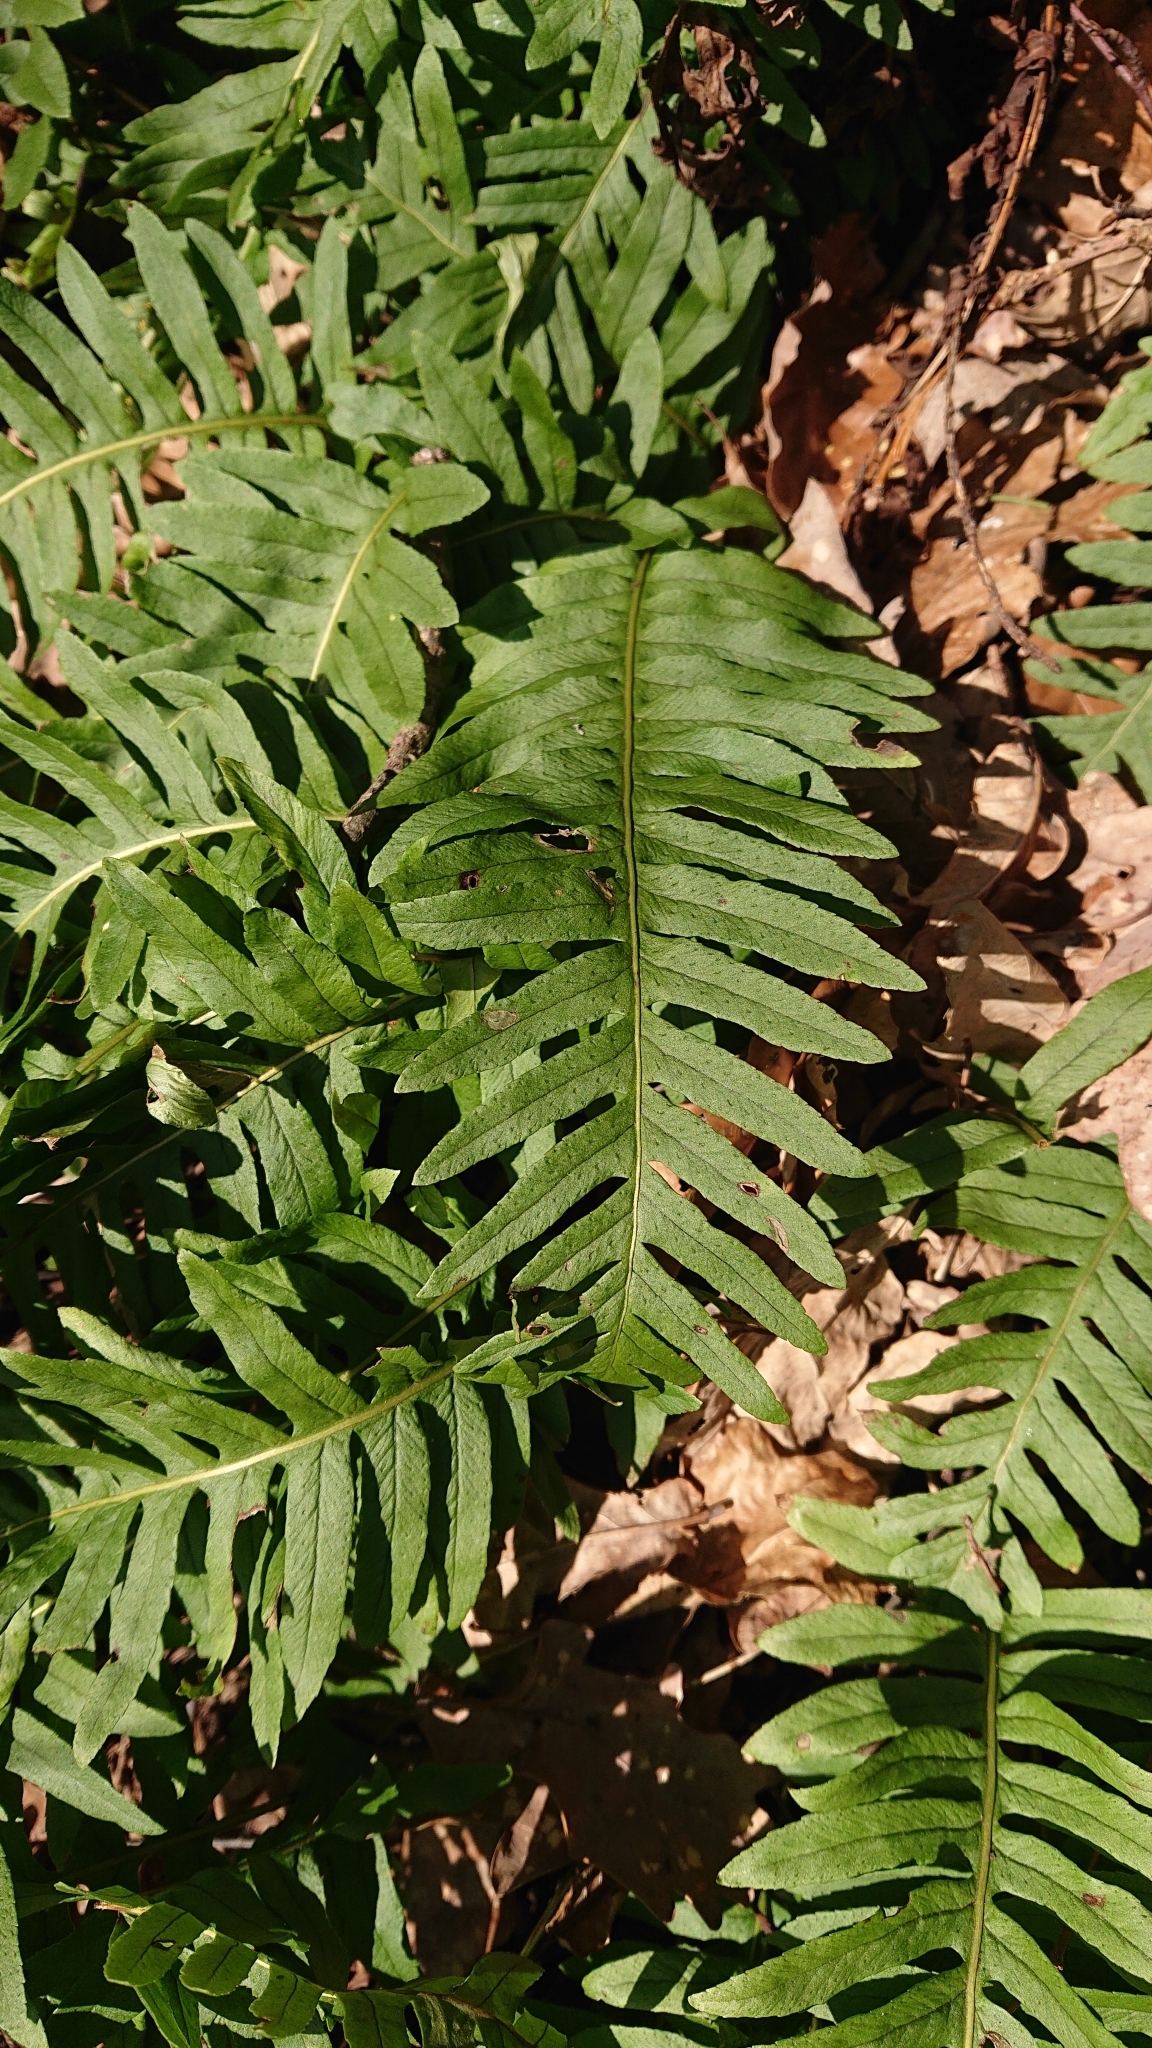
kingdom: Plantae
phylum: Tracheophyta
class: Polypodiopsida
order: Polypodiales
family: Polypodiaceae
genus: Polypodium
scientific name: Polypodium vulgare
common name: Common polypody
